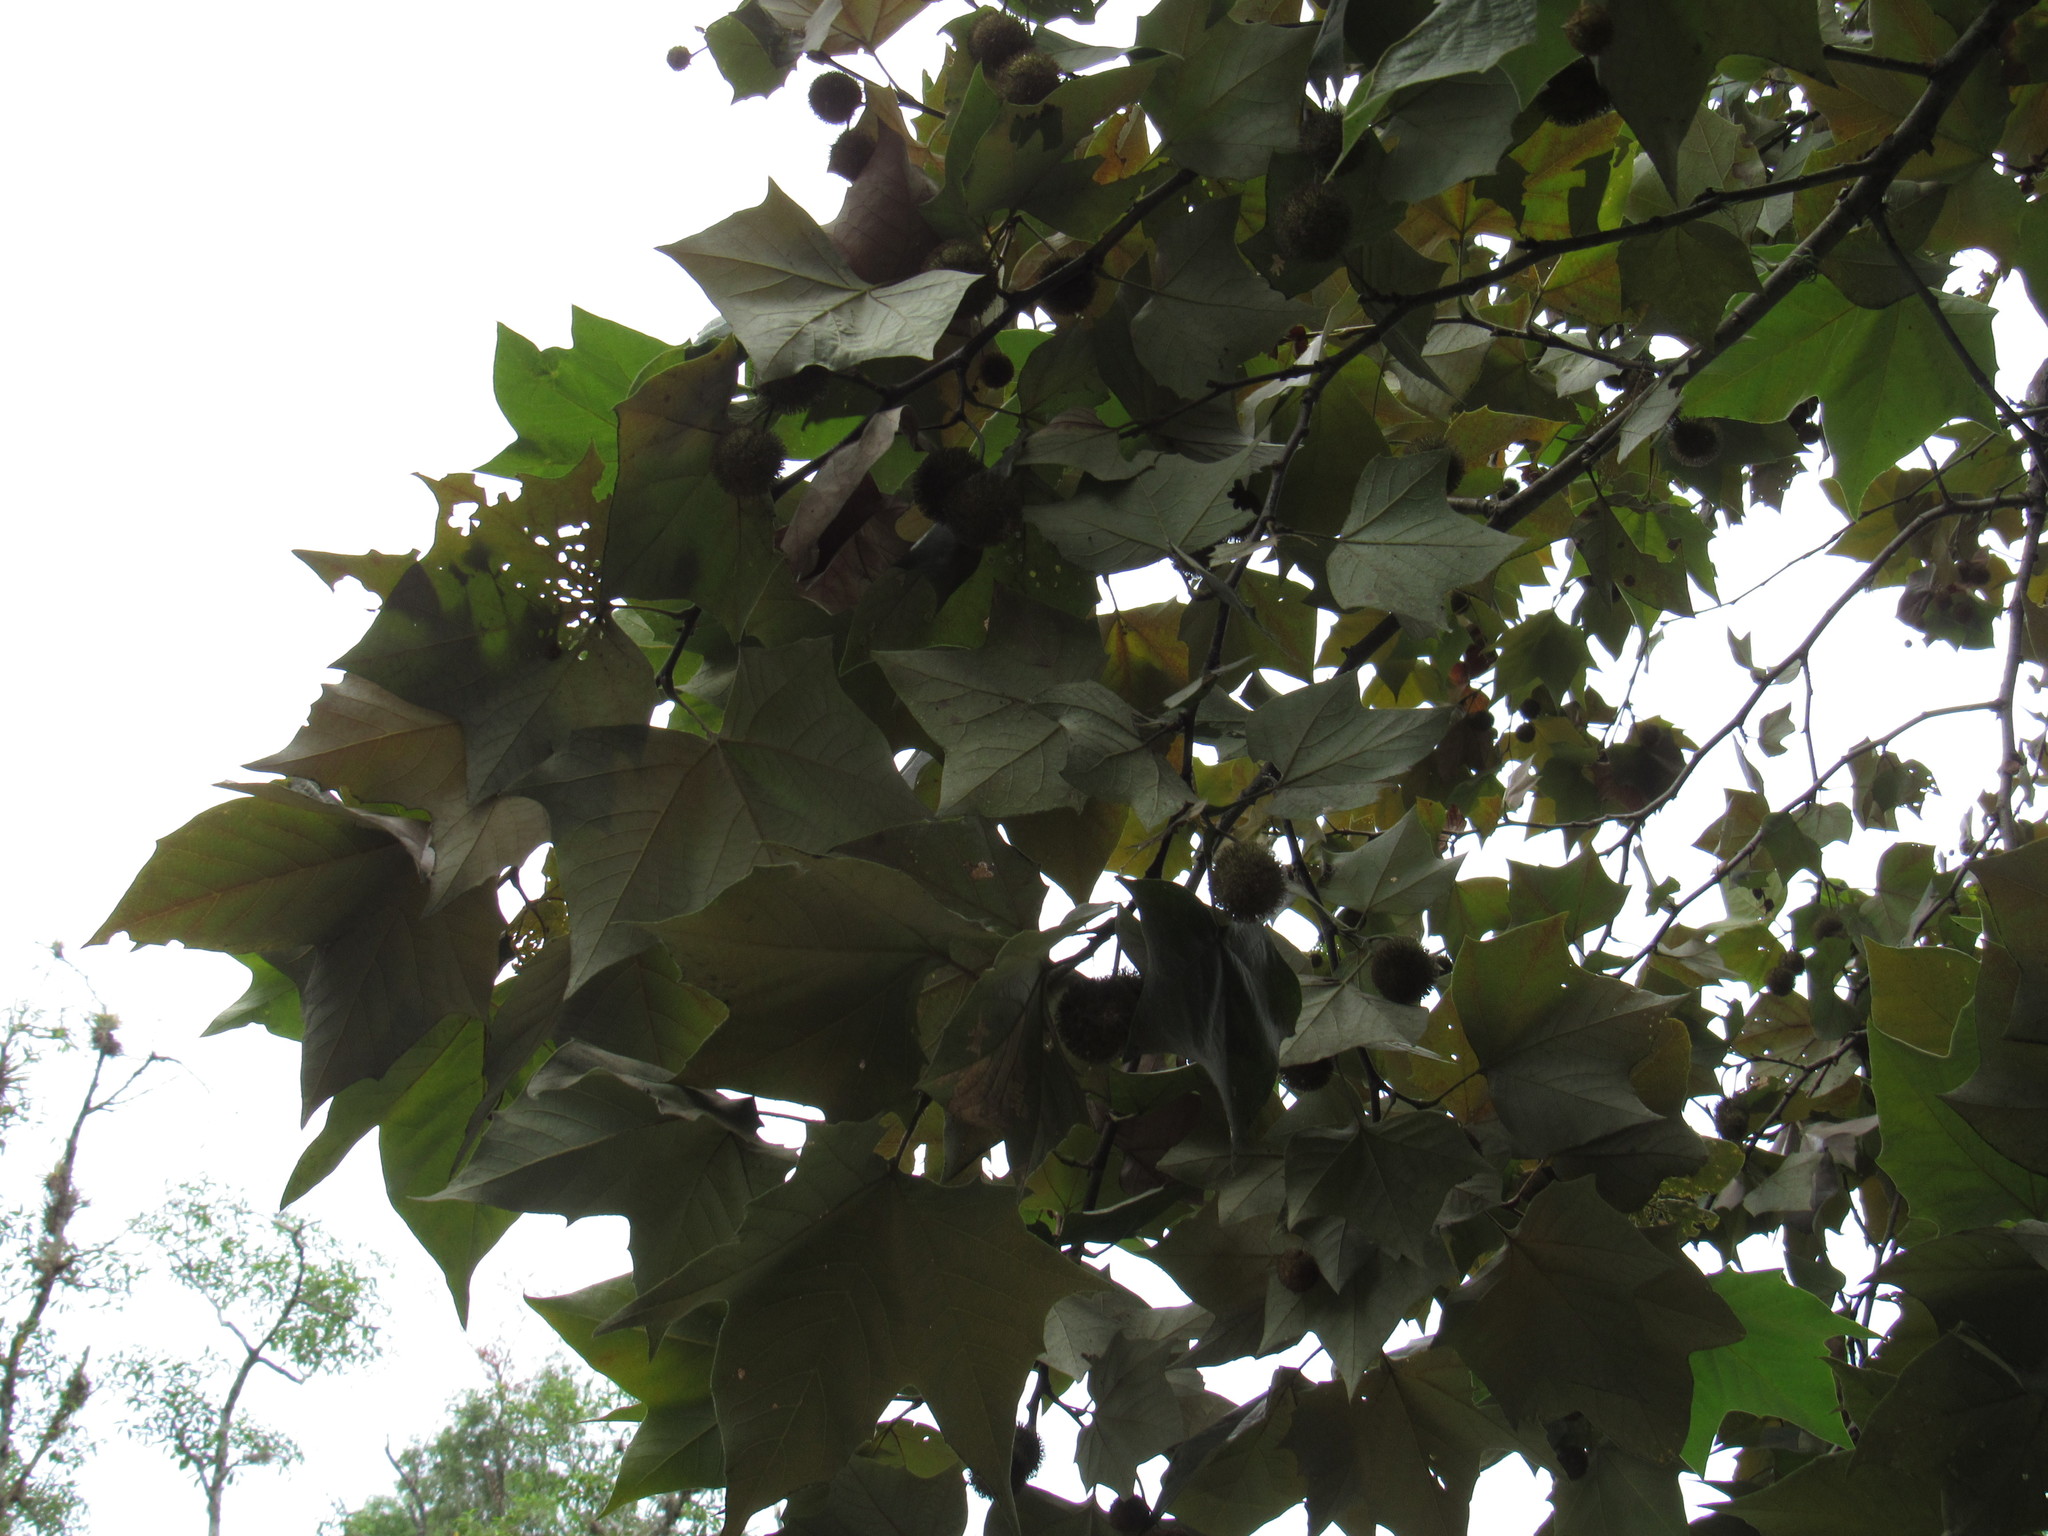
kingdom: Plantae
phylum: Tracheophyta
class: Magnoliopsida
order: Proteales
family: Platanaceae
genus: Platanus
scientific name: Platanus mexicana
